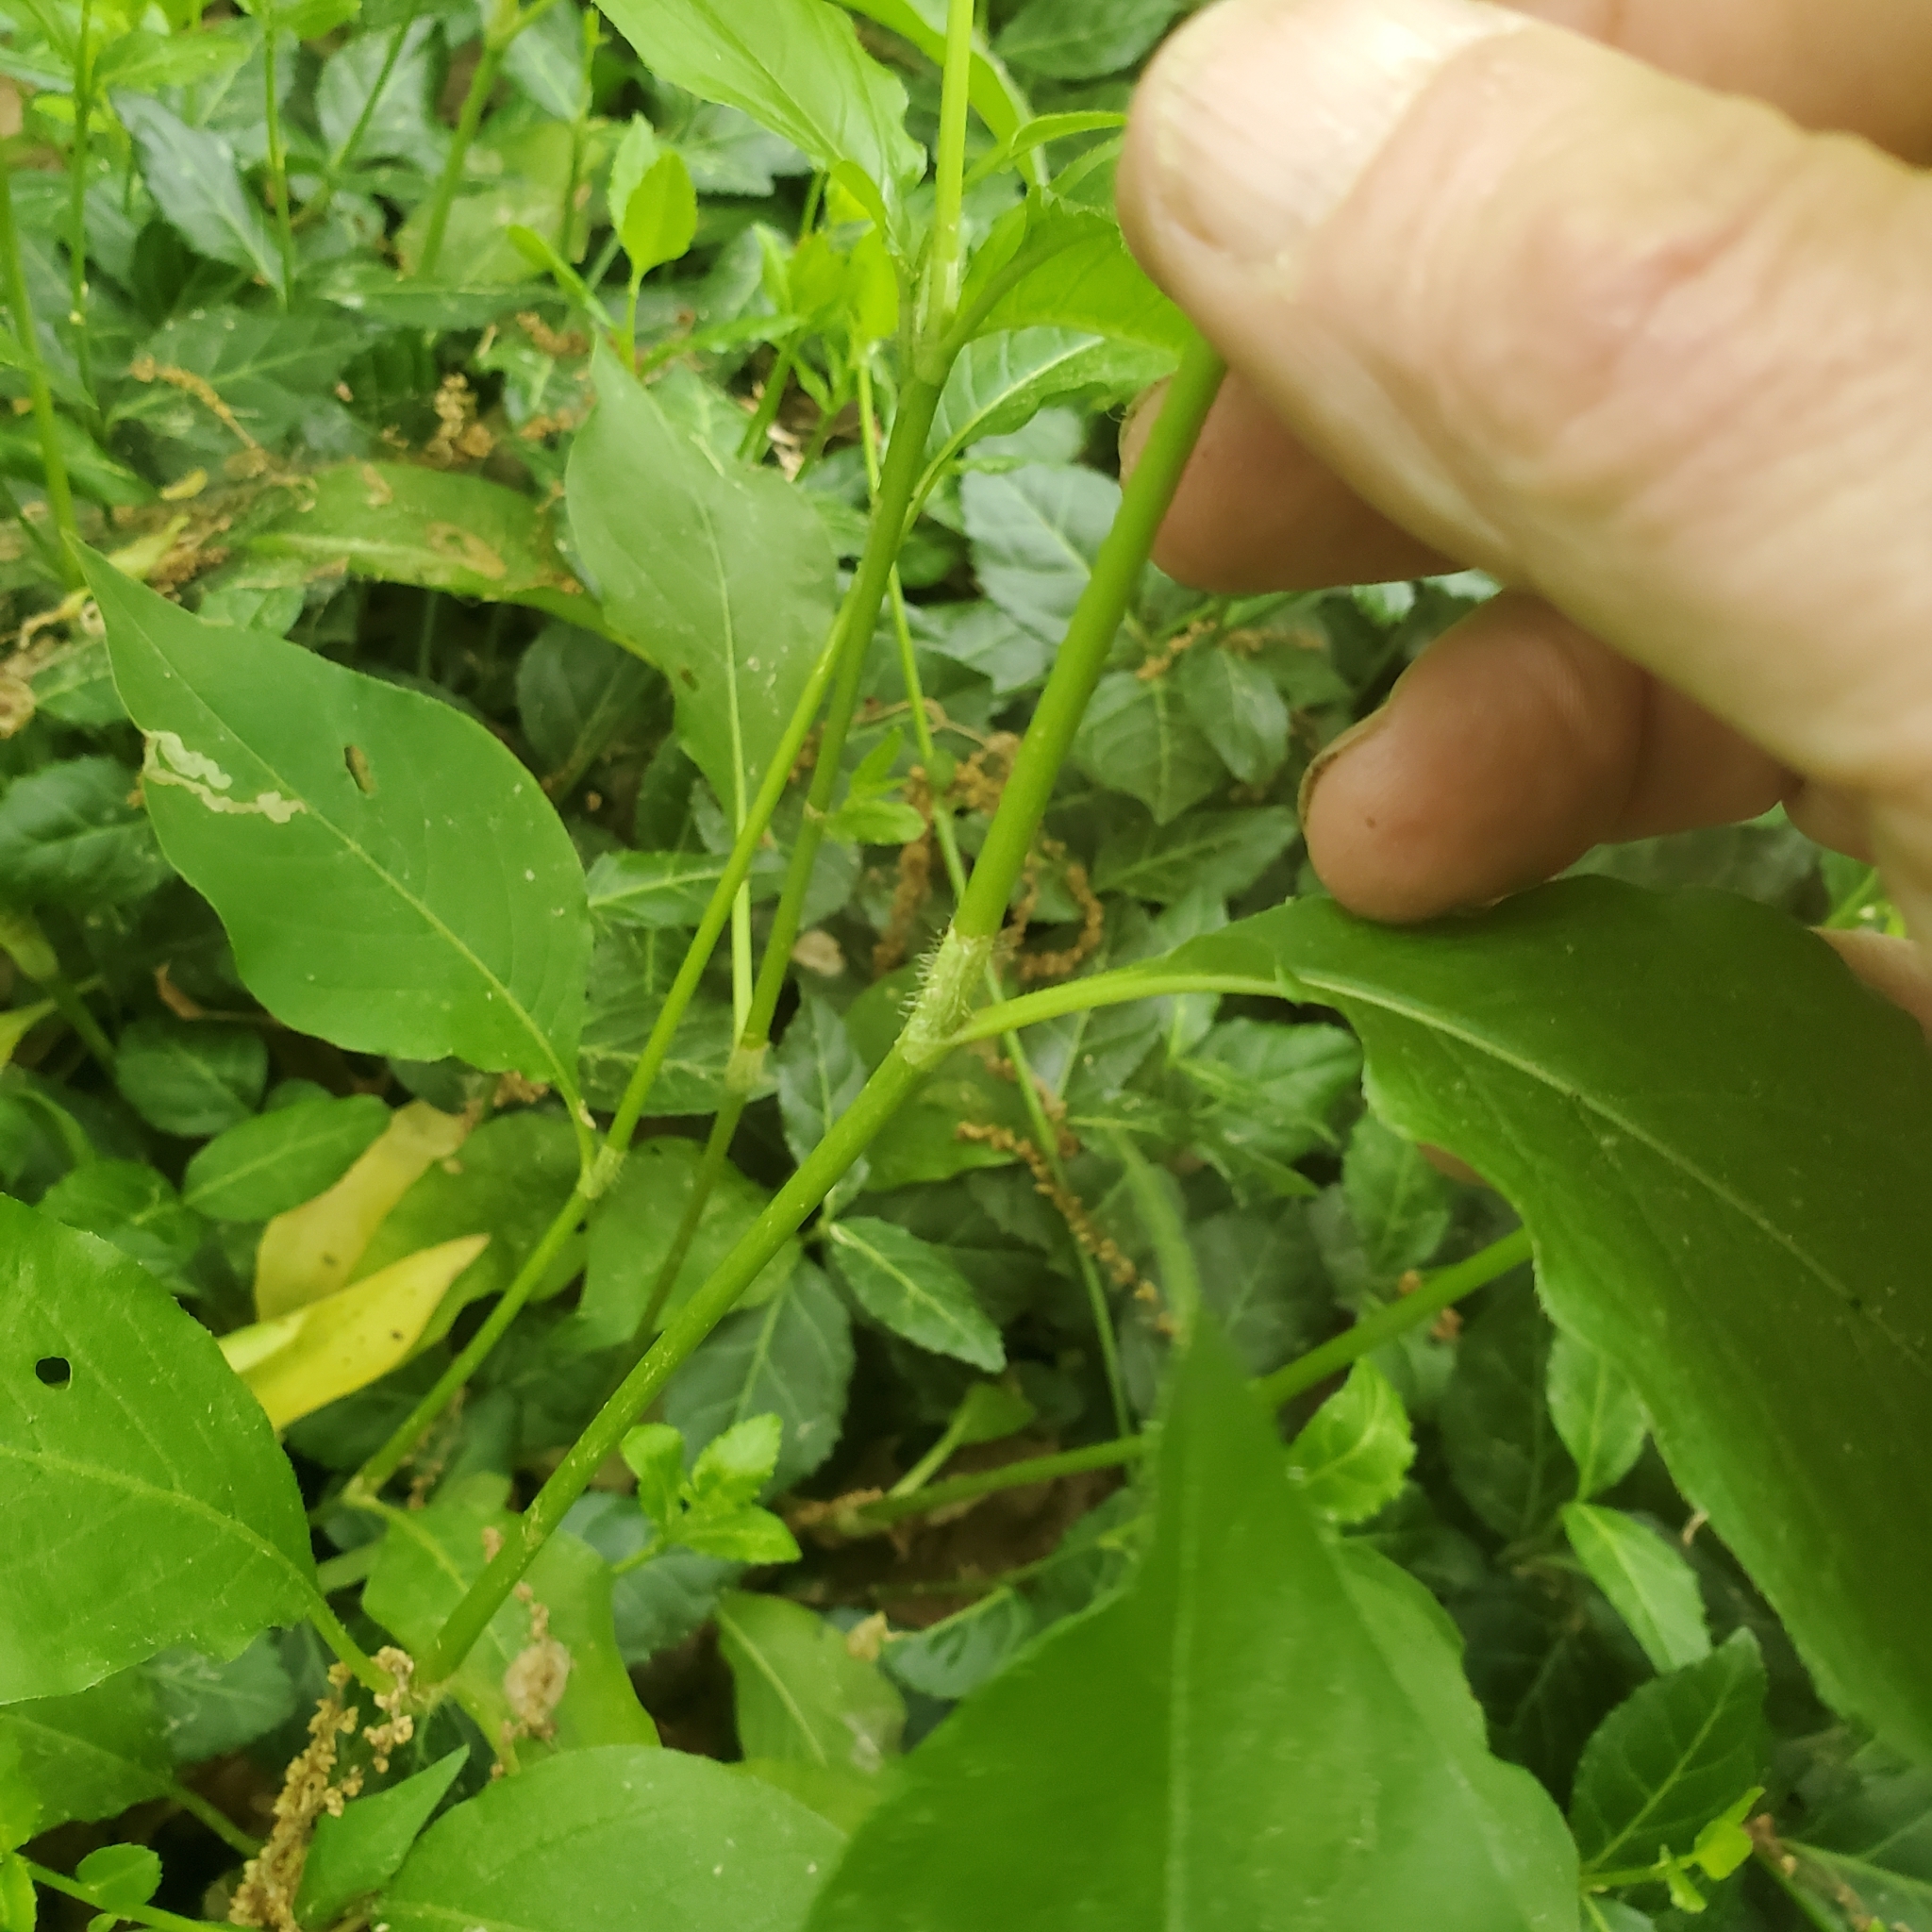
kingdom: Plantae
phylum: Tracheophyta
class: Magnoliopsida
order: Caryophyllales
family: Polygonaceae
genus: Persicaria
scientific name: Persicaria virginiana
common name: Jumpseed
